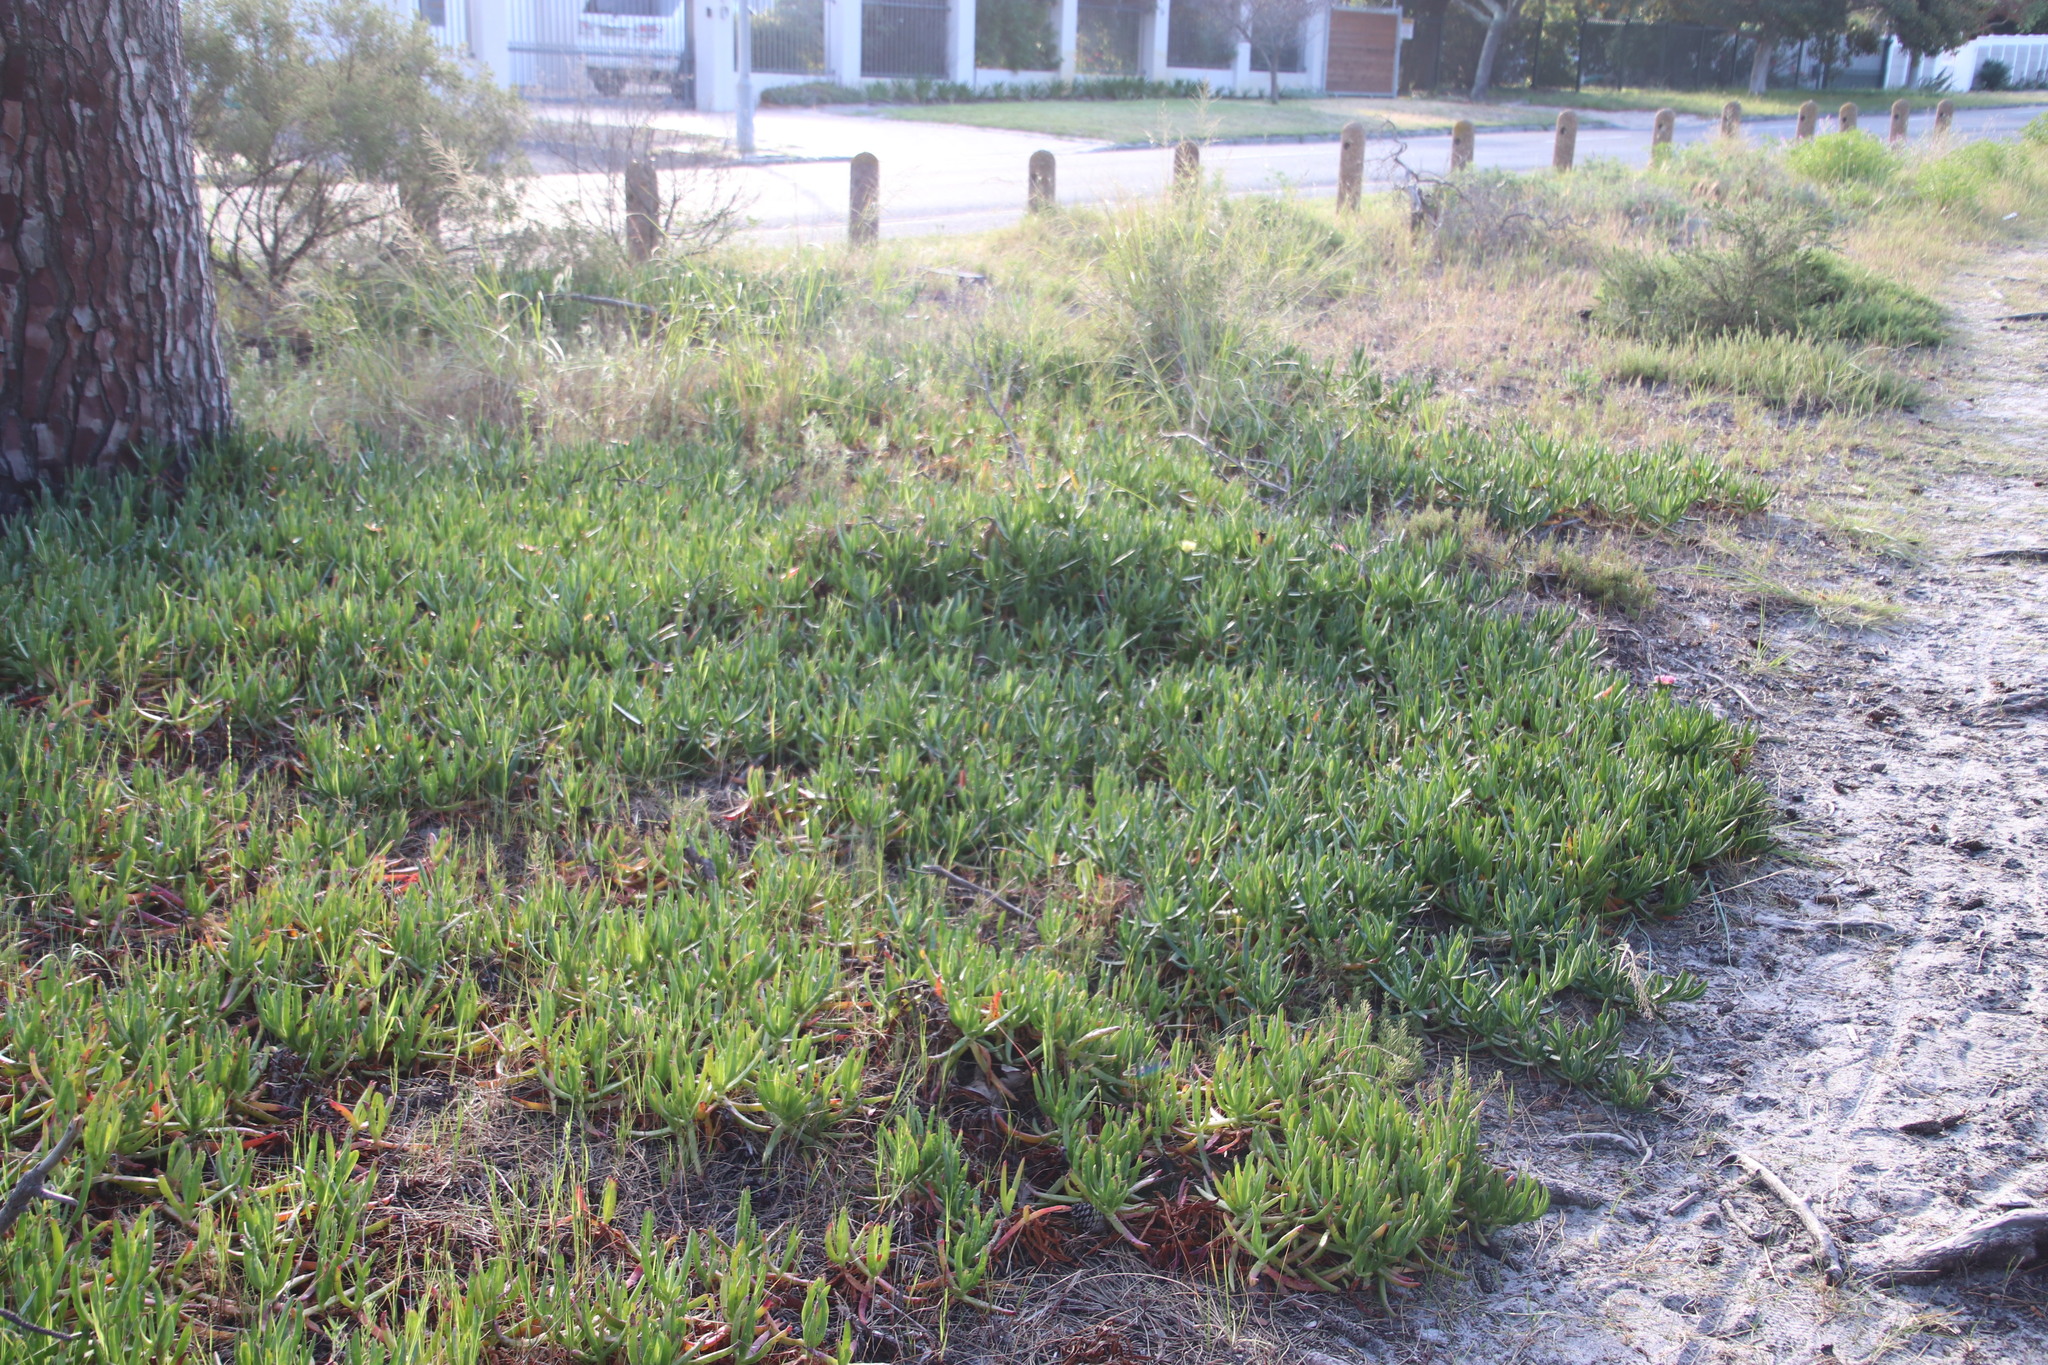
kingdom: Plantae
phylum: Tracheophyta
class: Magnoliopsida
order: Caryophyllales
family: Aizoaceae
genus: Carpobrotus
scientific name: Carpobrotus edulis
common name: Hottentot-fig
